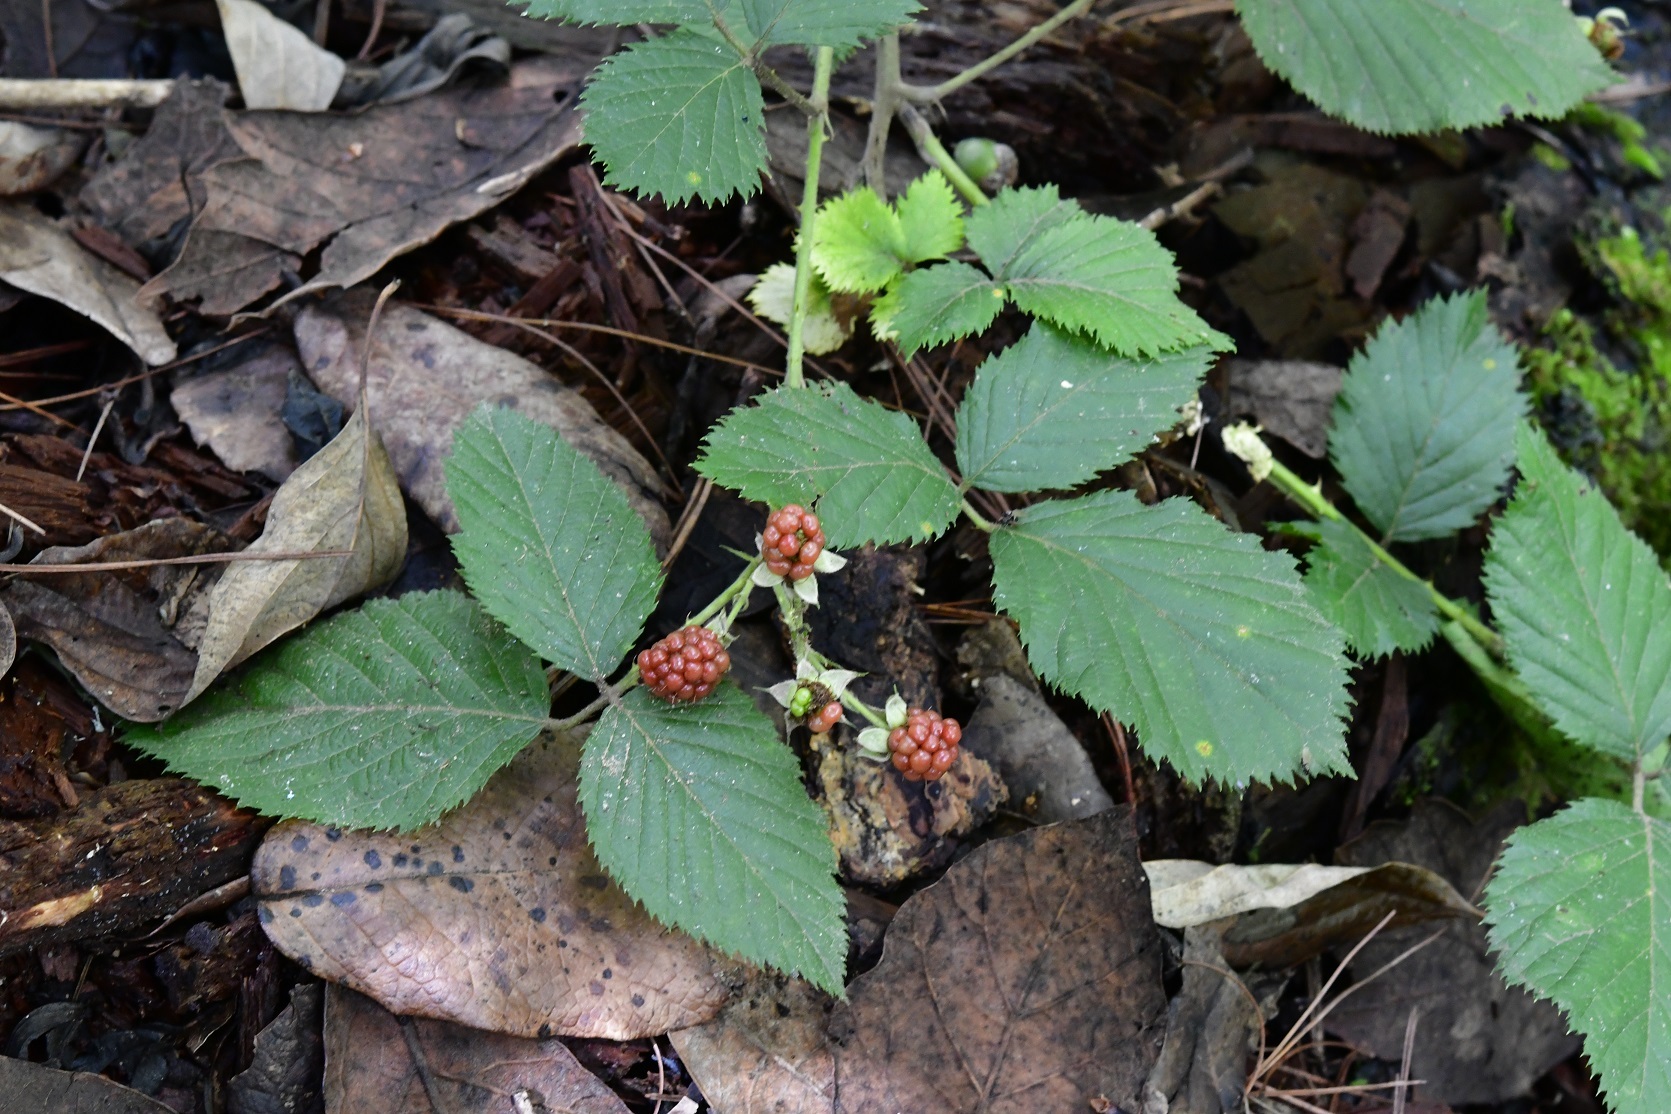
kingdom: Plantae
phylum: Tracheophyta
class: Magnoliopsida
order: Rosales
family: Rosaceae
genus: Rubus
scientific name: Rubus sapidus
